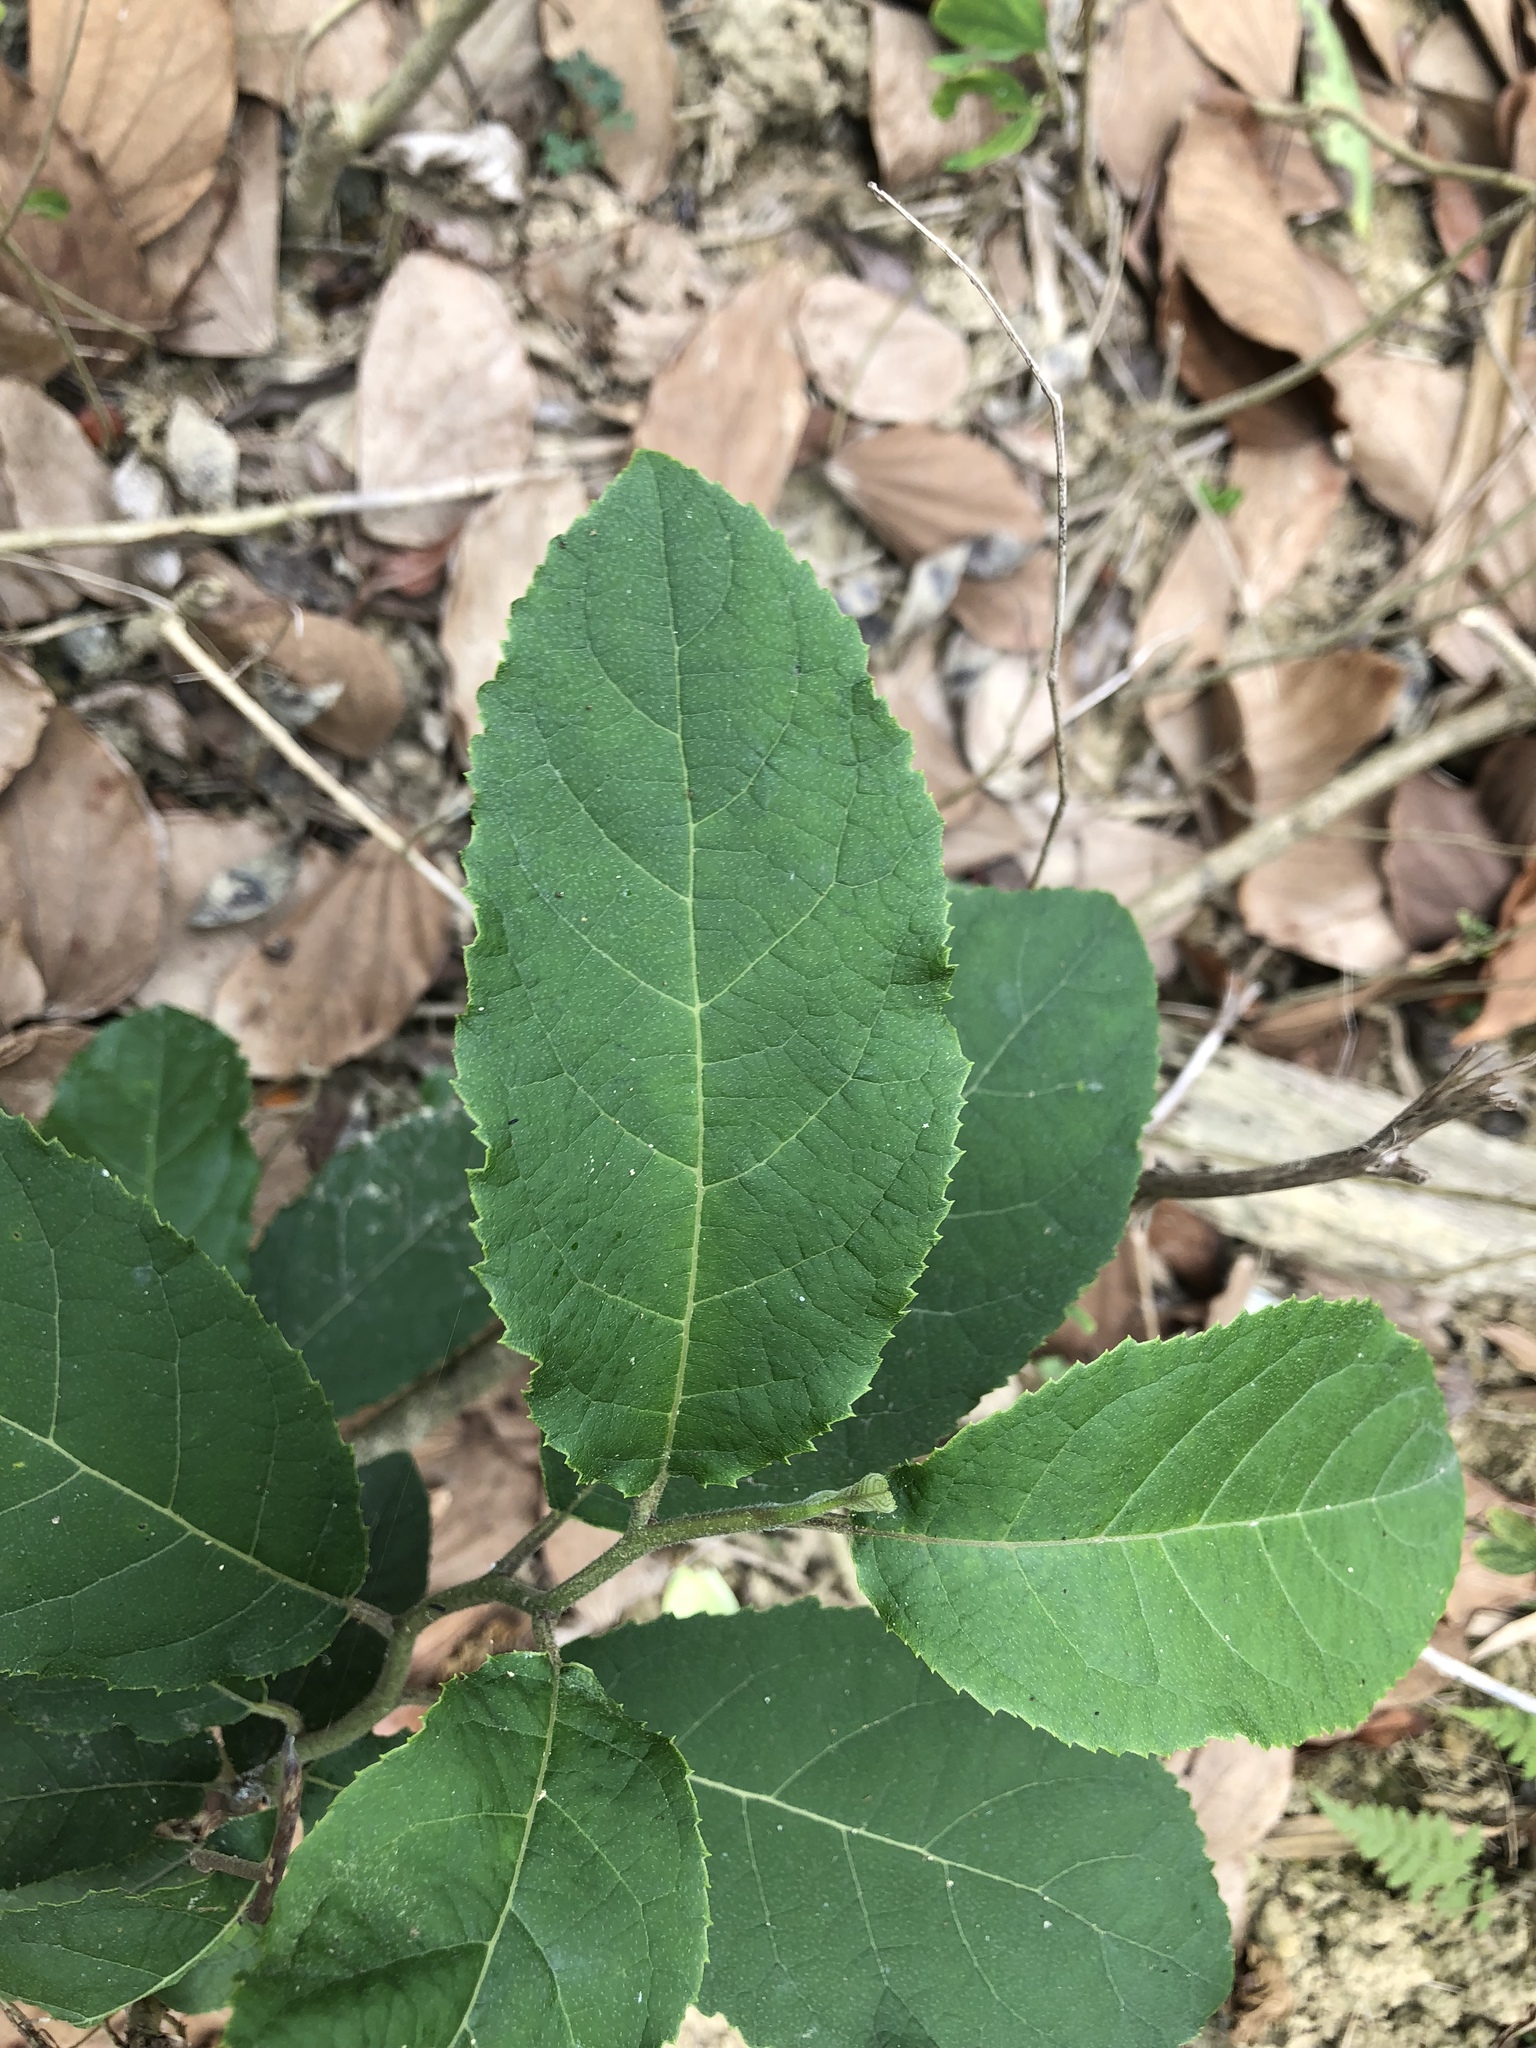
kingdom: Plantae
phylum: Tracheophyta
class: Magnoliopsida
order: Boraginales
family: Ehretiaceae
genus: Ehretia
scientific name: Ehretia acuminata
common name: Kodo wood
